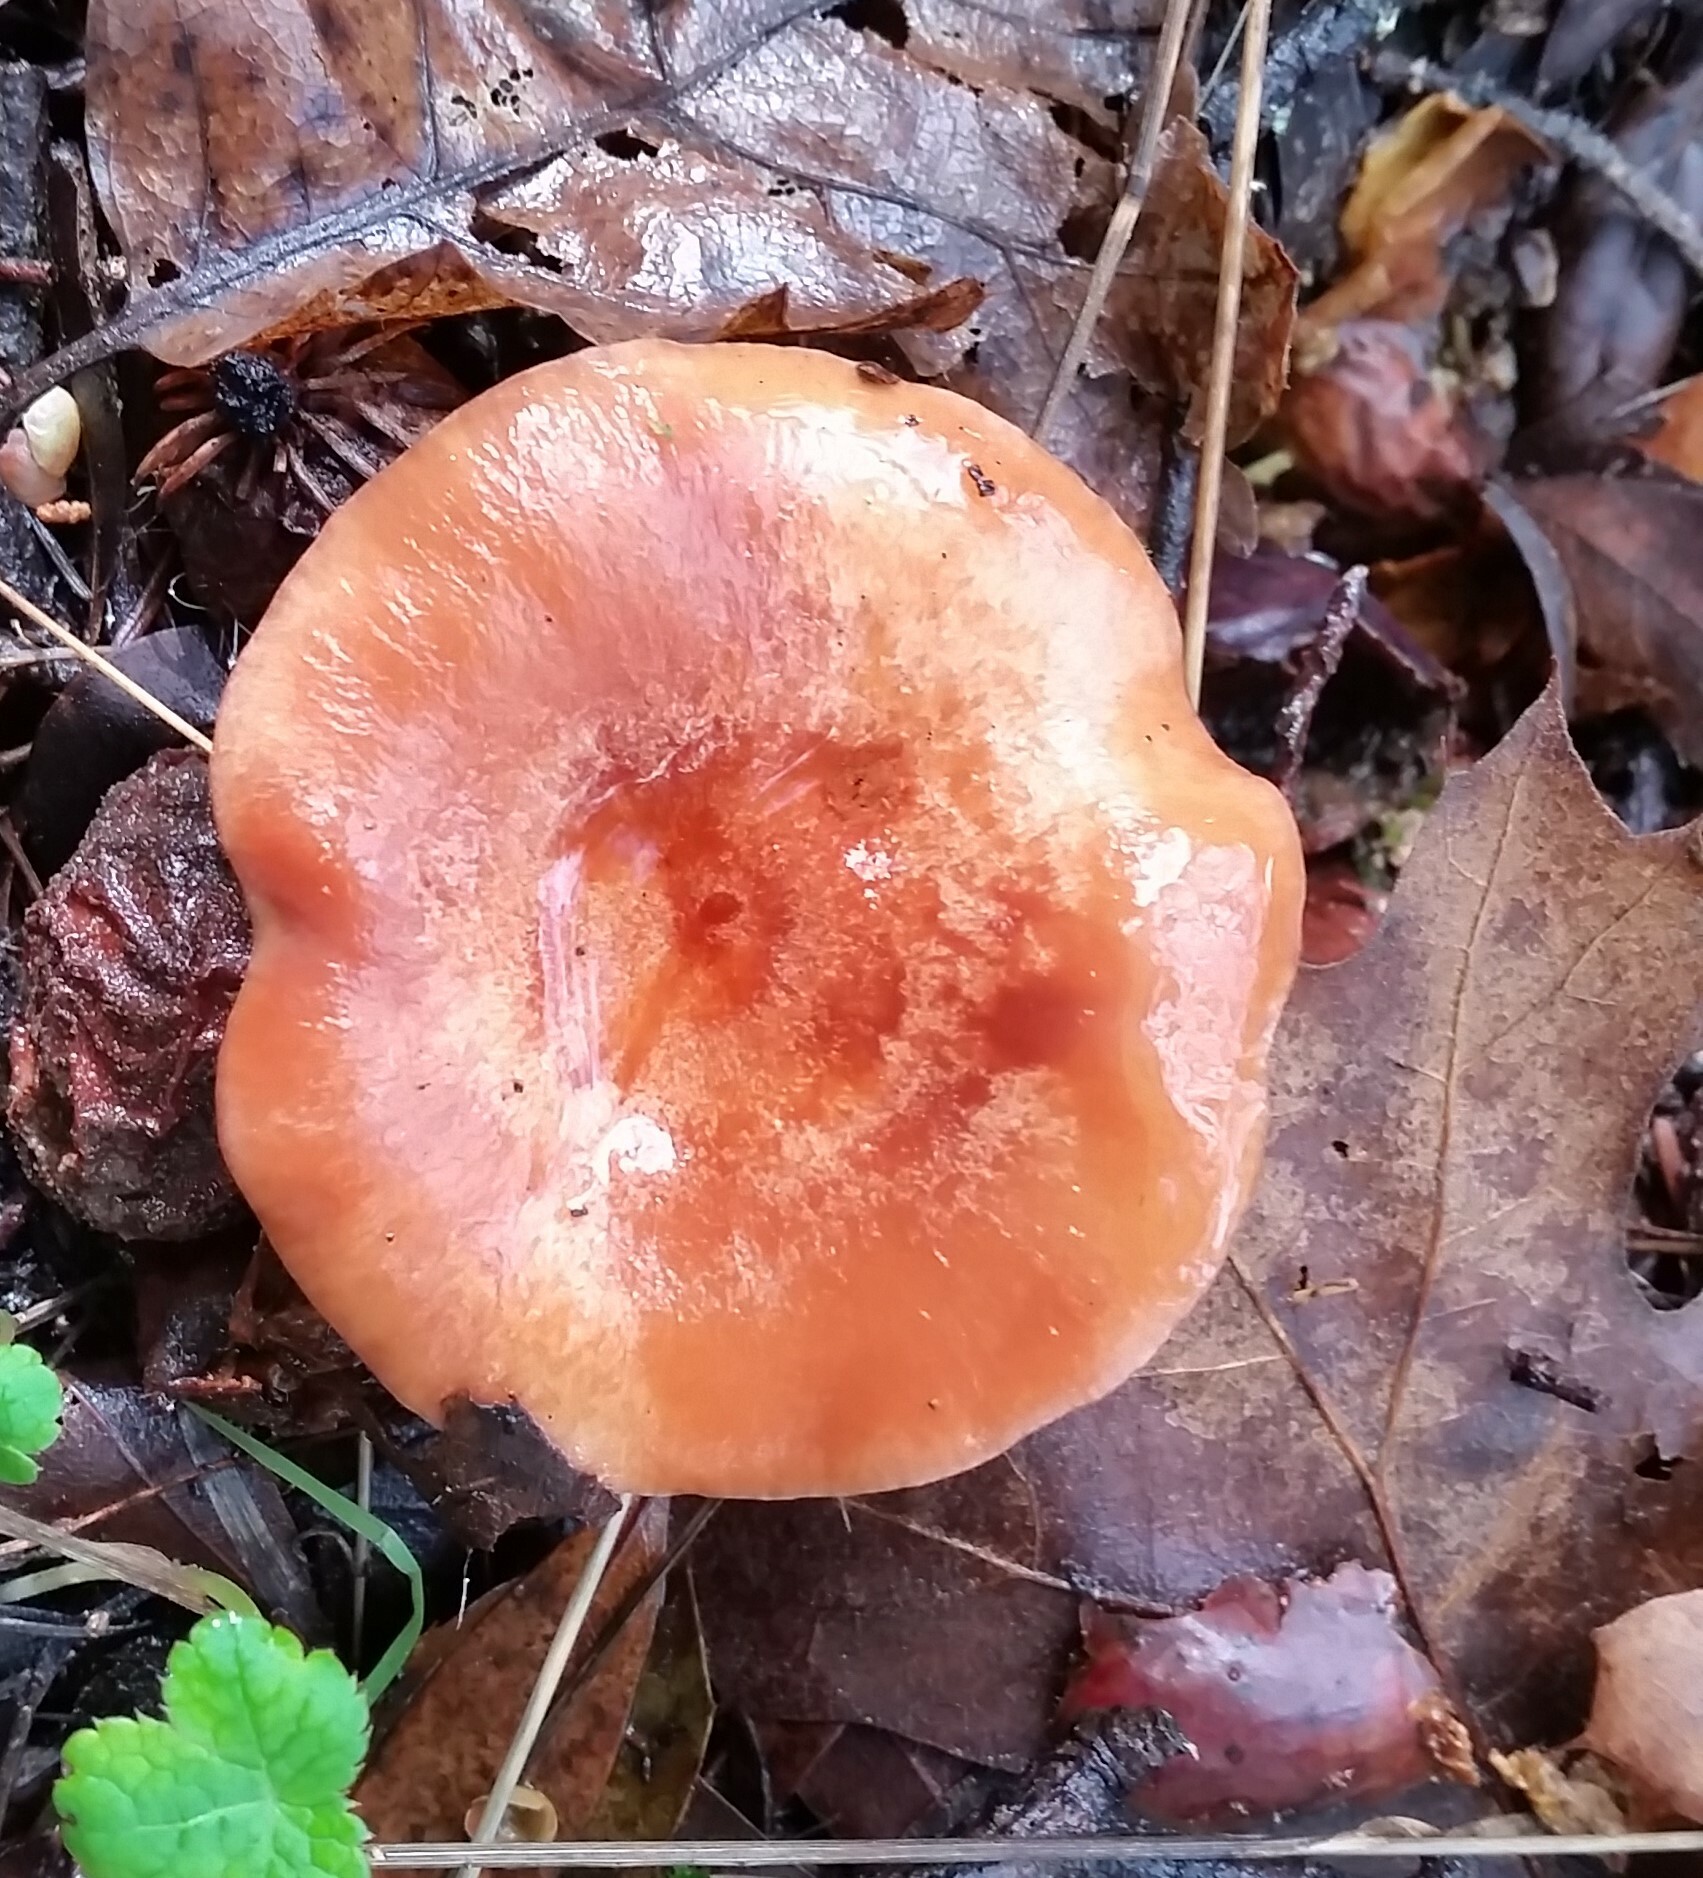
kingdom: Fungi
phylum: Basidiomycota
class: Agaricomycetes
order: Russulales
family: Russulaceae
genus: Lactarius
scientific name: Lactarius xanthogalactus
